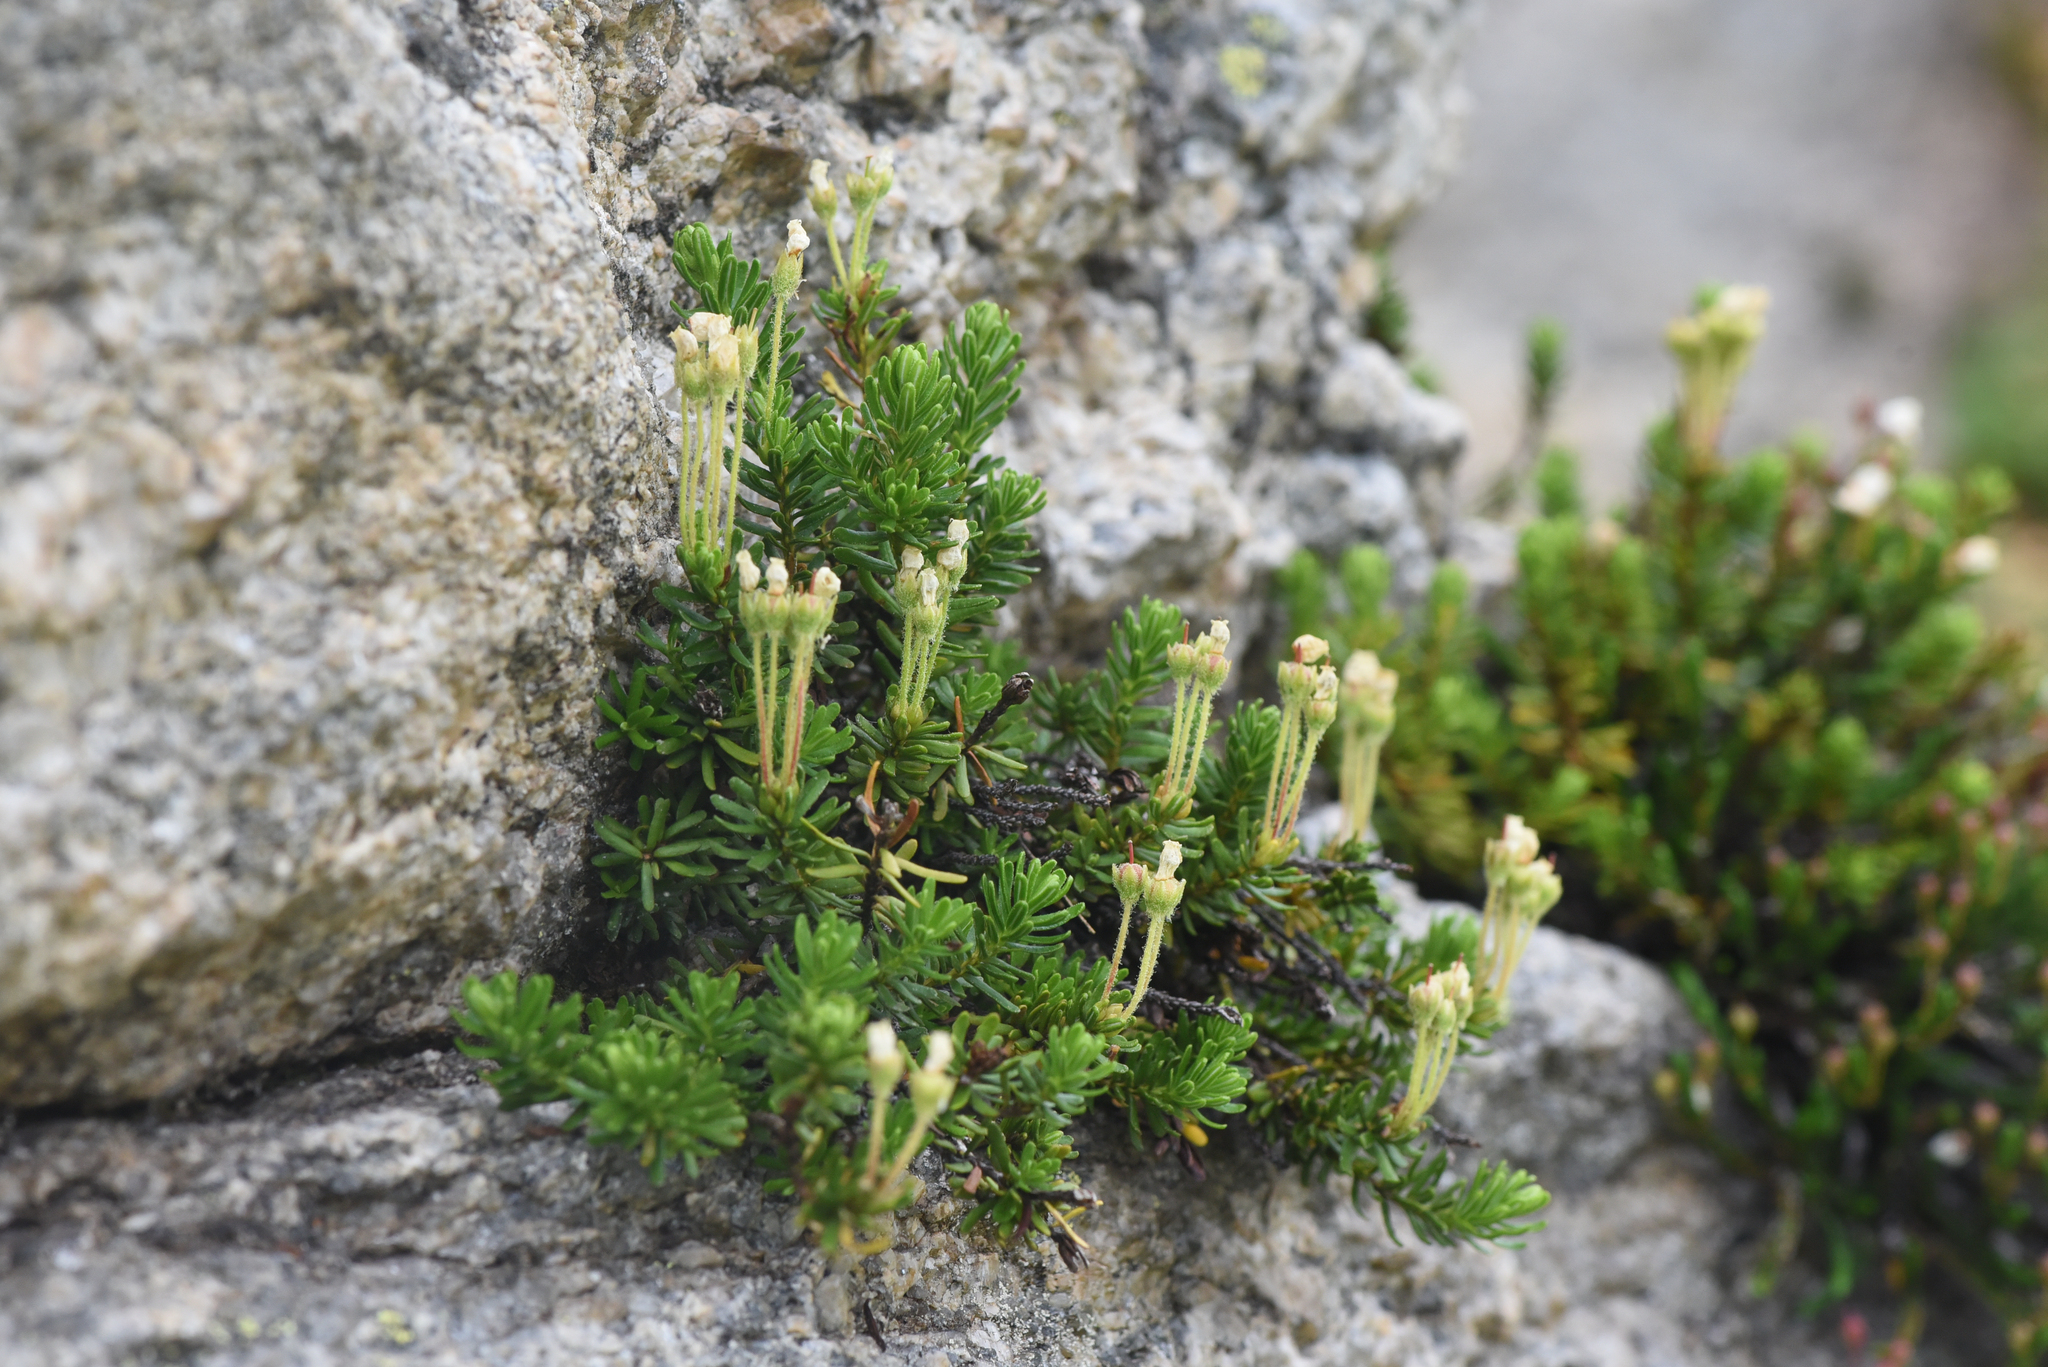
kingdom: Plantae
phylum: Tracheophyta
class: Magnoliopsida
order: Ericales
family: Ericaceae
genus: Phyllodoce
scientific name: Phyllodoce glanduliflora
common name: Cream mountain heather
